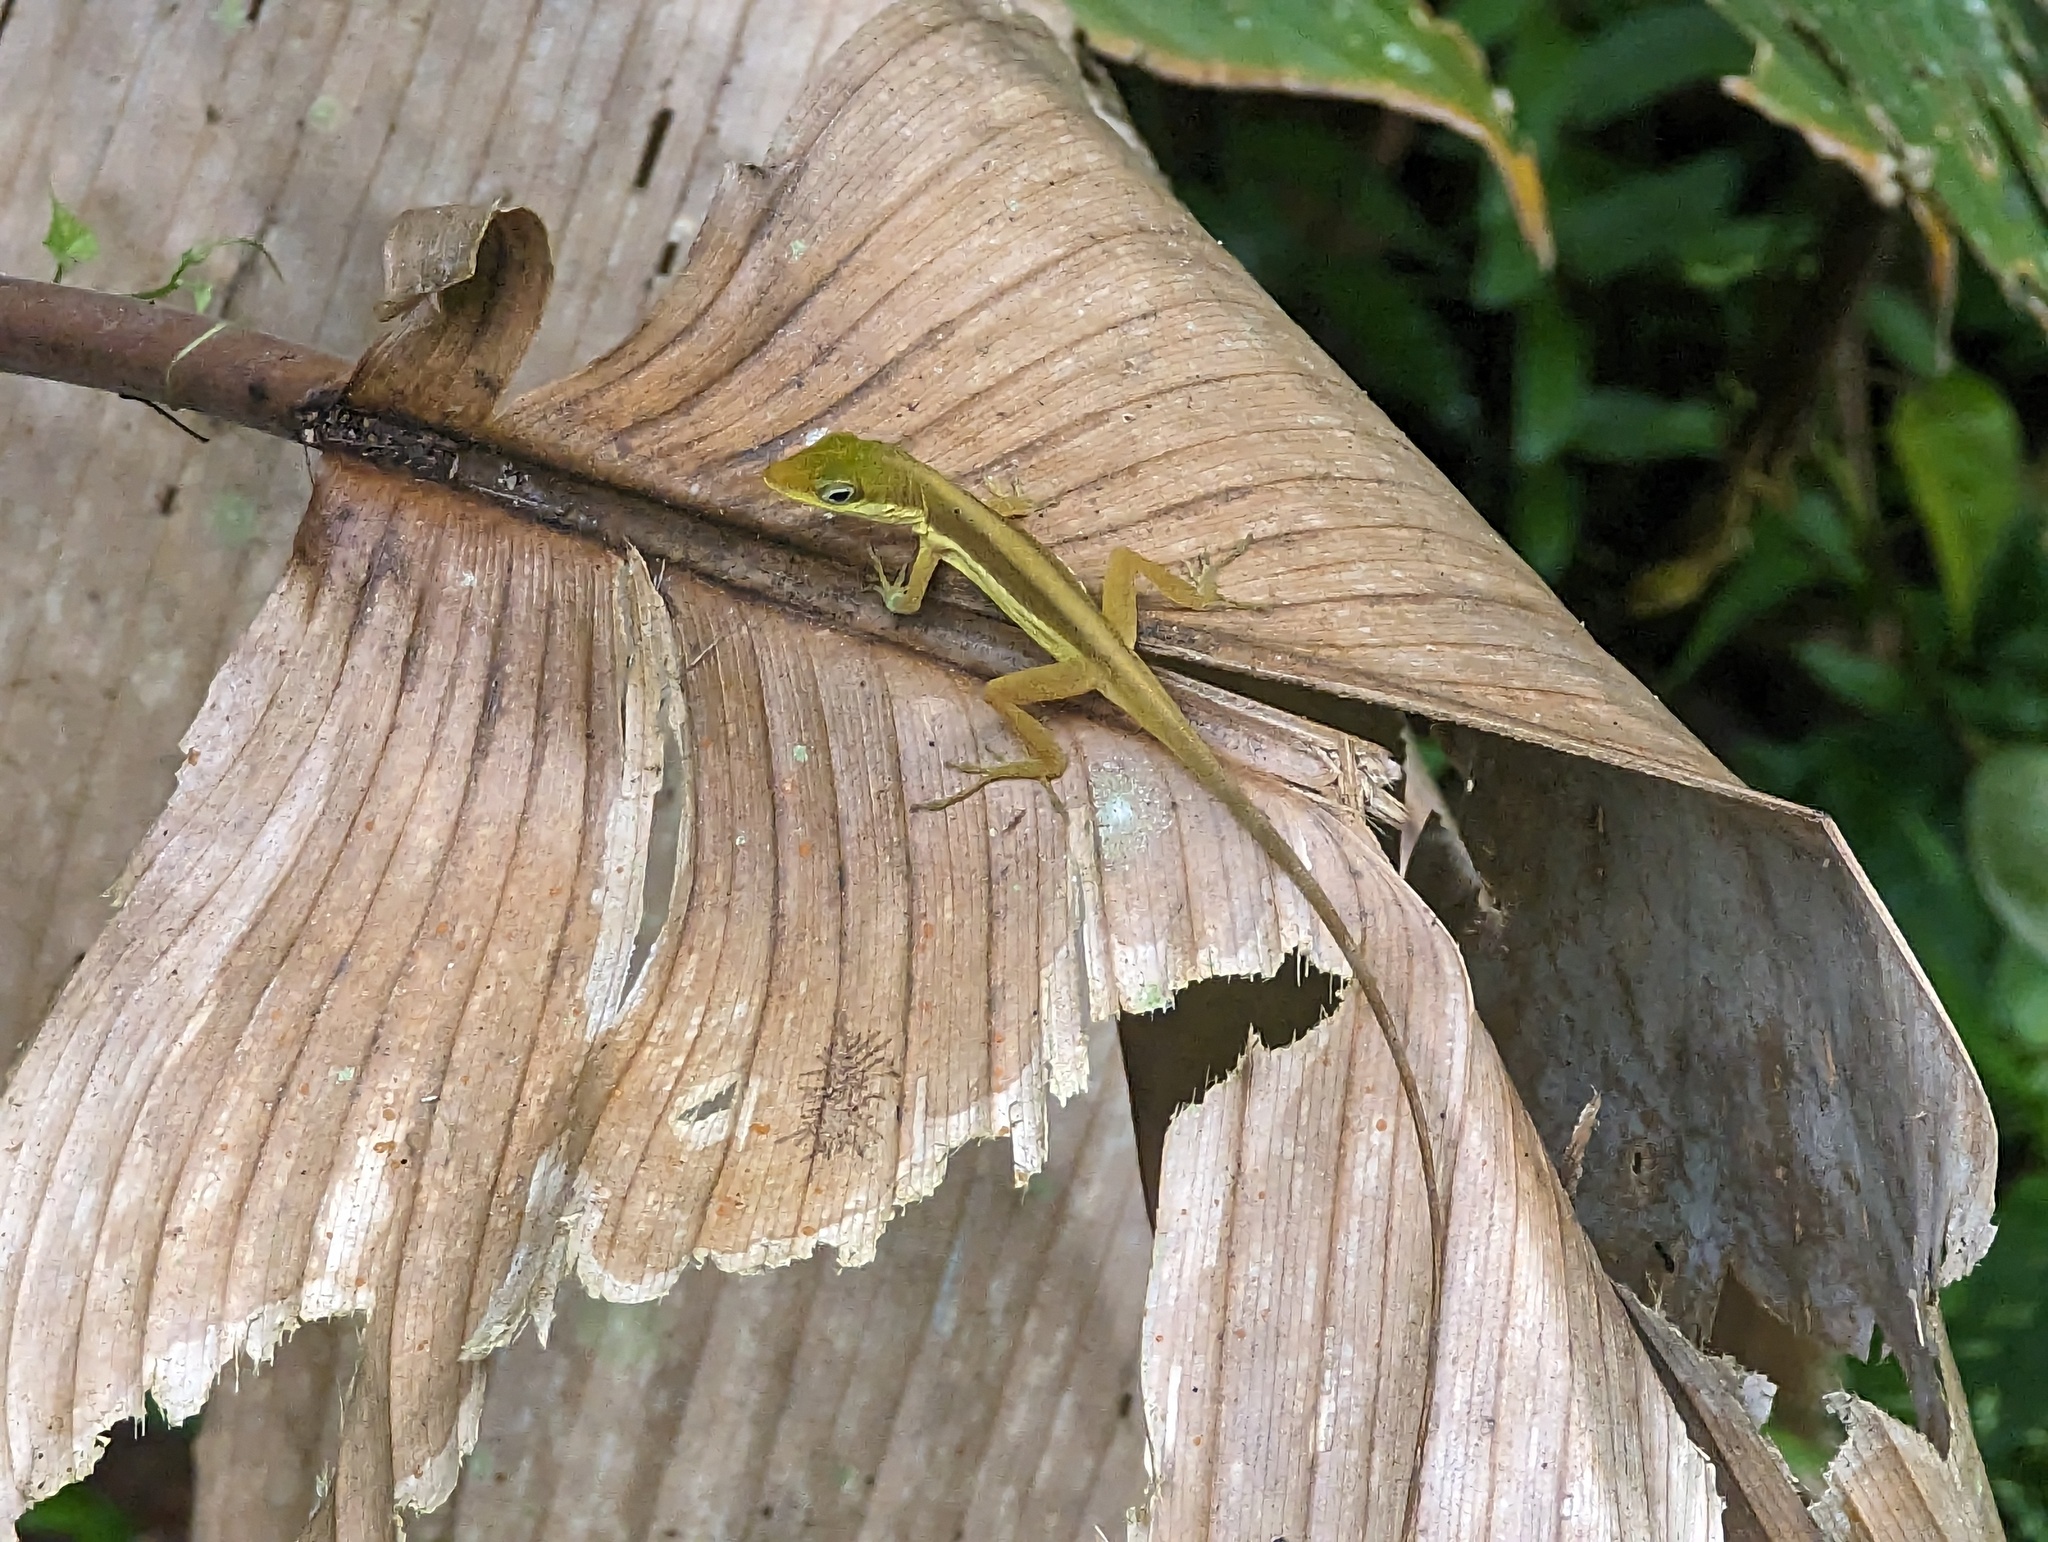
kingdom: Animalia
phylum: Chordata
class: Squamata
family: Dactyloidae
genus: Anolis
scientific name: Anolis krugi
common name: Krug's anole
